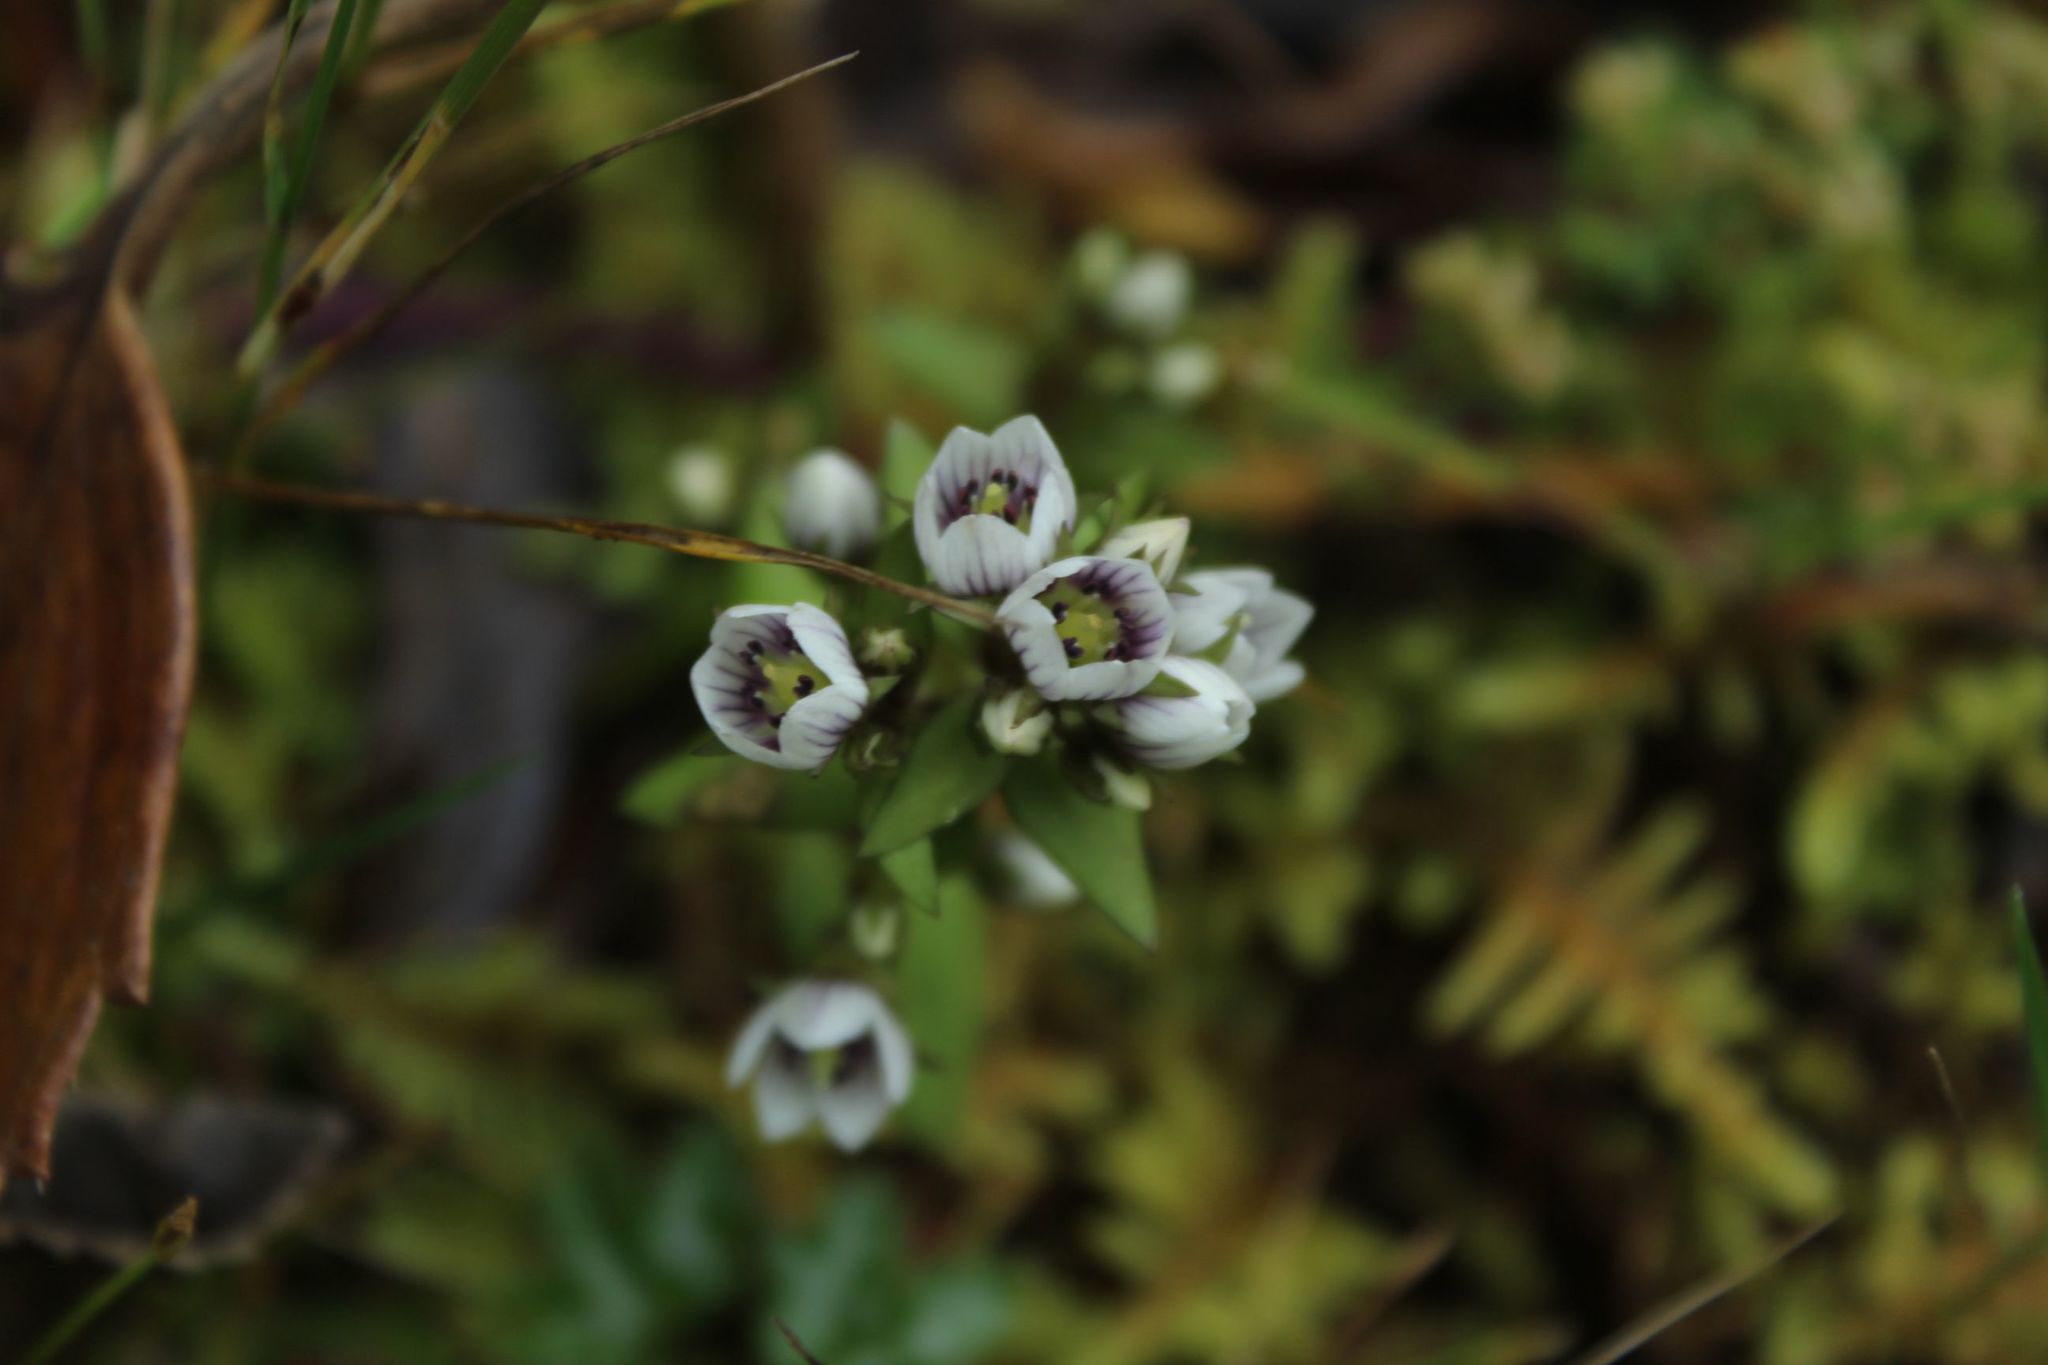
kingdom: Plantae
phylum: Tracheophyta
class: Magnoliopsida
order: Gentianales
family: Gentianaceae
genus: Gentianella
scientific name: Gentianella corymbosa
